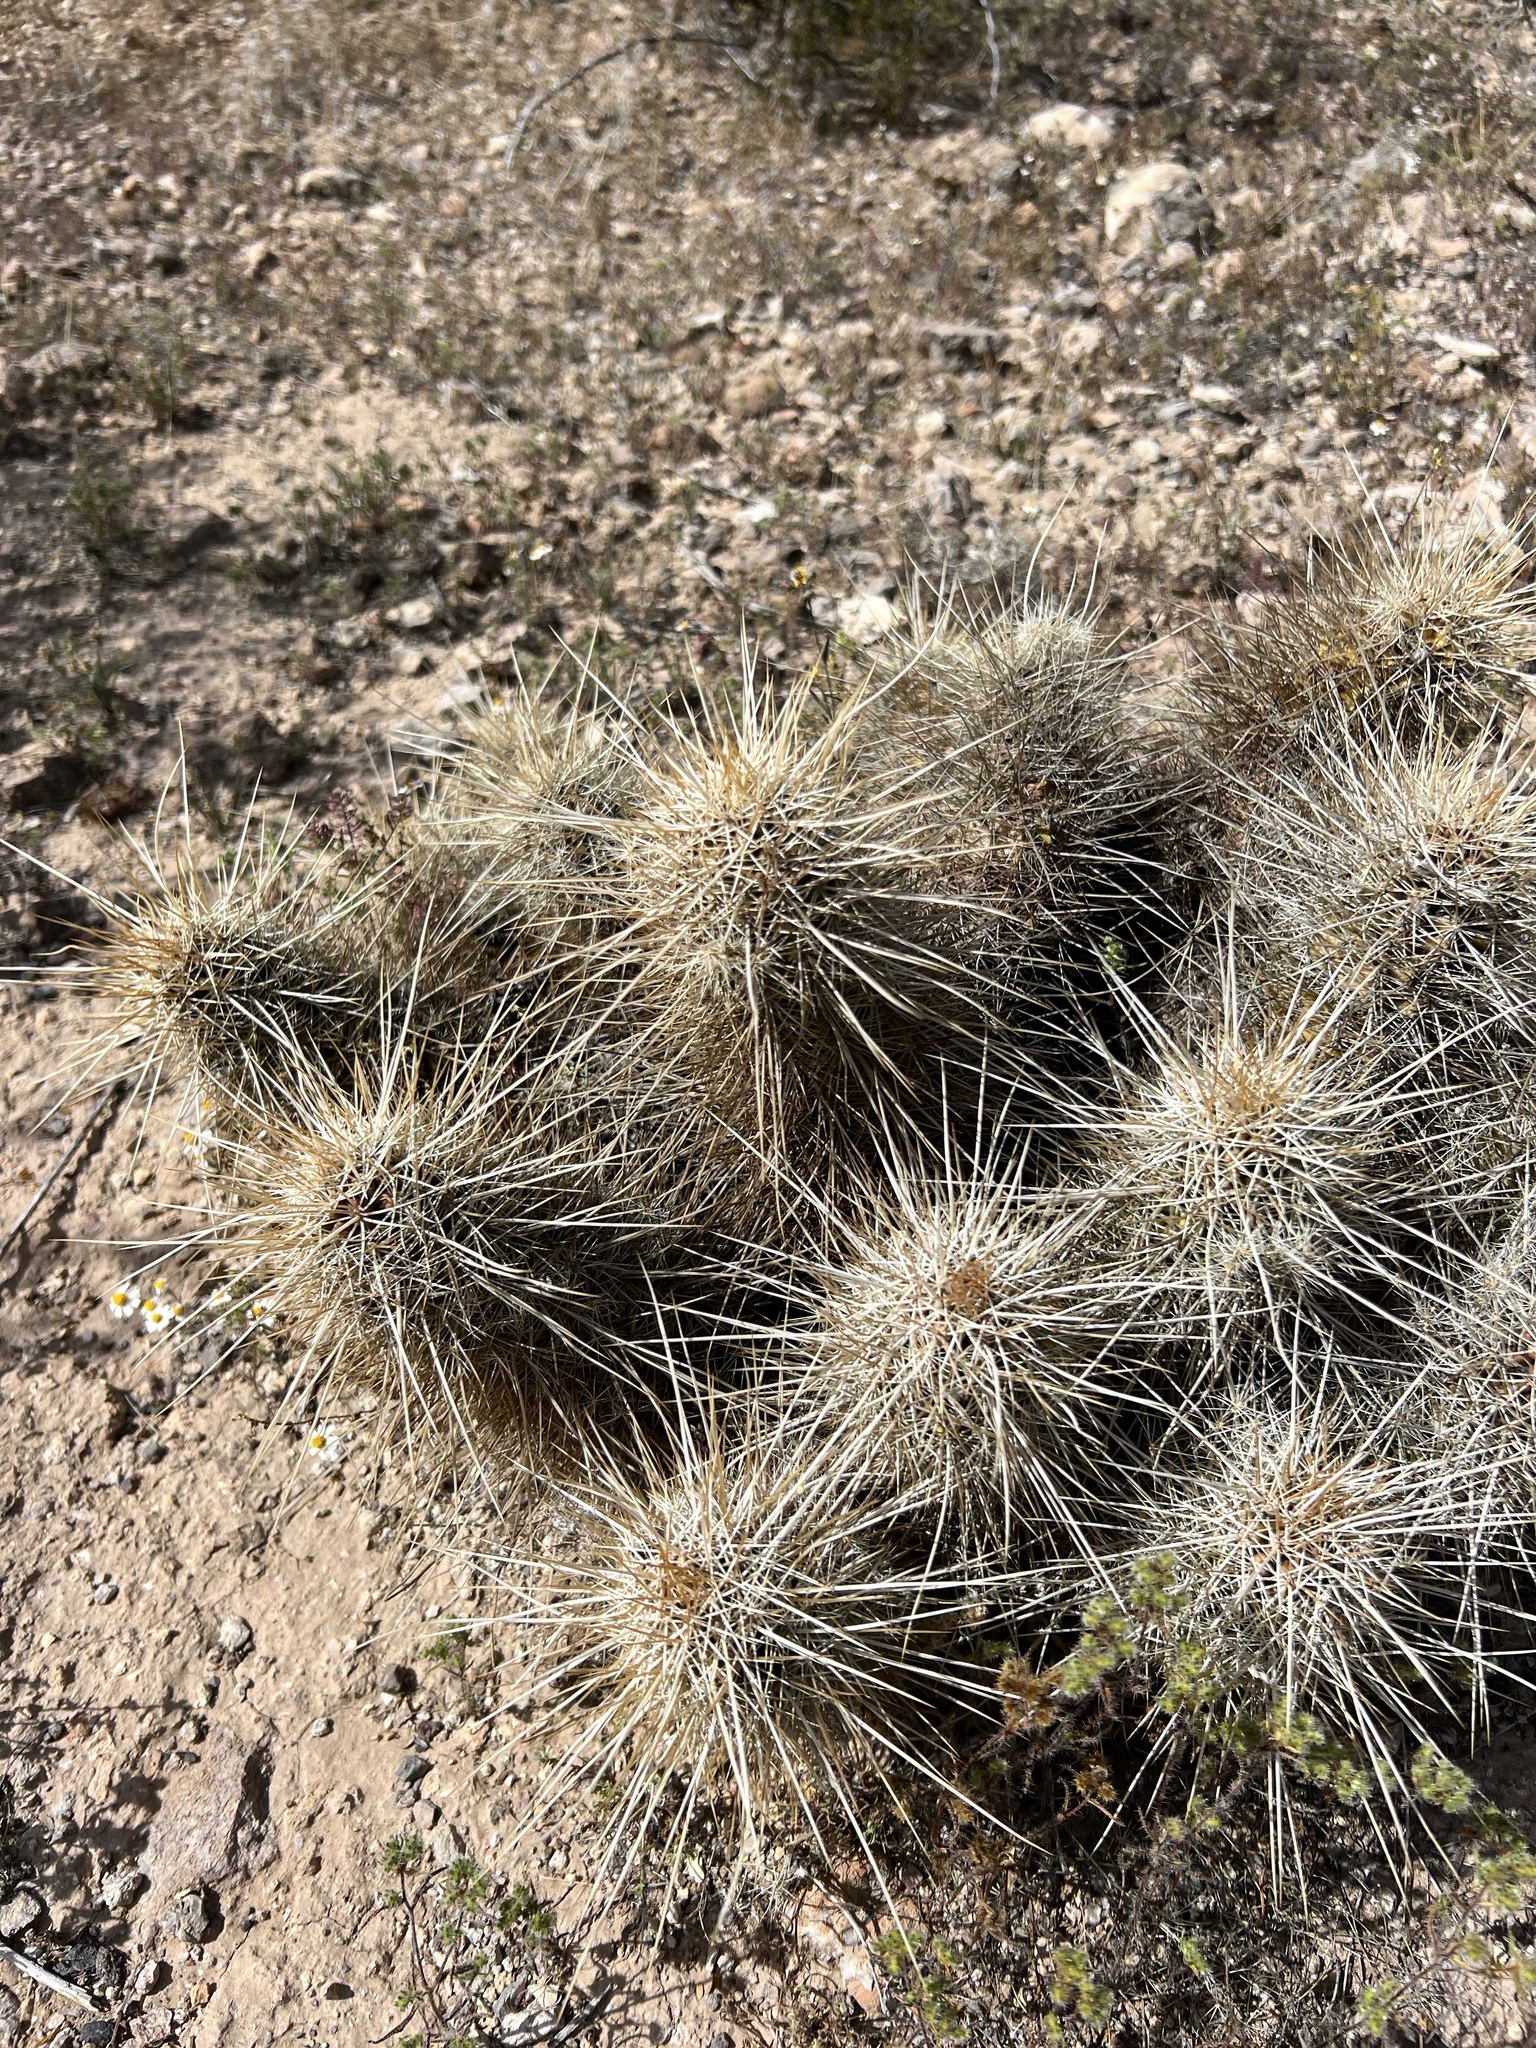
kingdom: Plantae
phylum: Tracheophyta
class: Magnoliopsida
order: Caryophyllales
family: Cactaceae
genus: Echinocereus
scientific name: Echinocereus engelmannii
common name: Engelmann's hedgehog cactus
